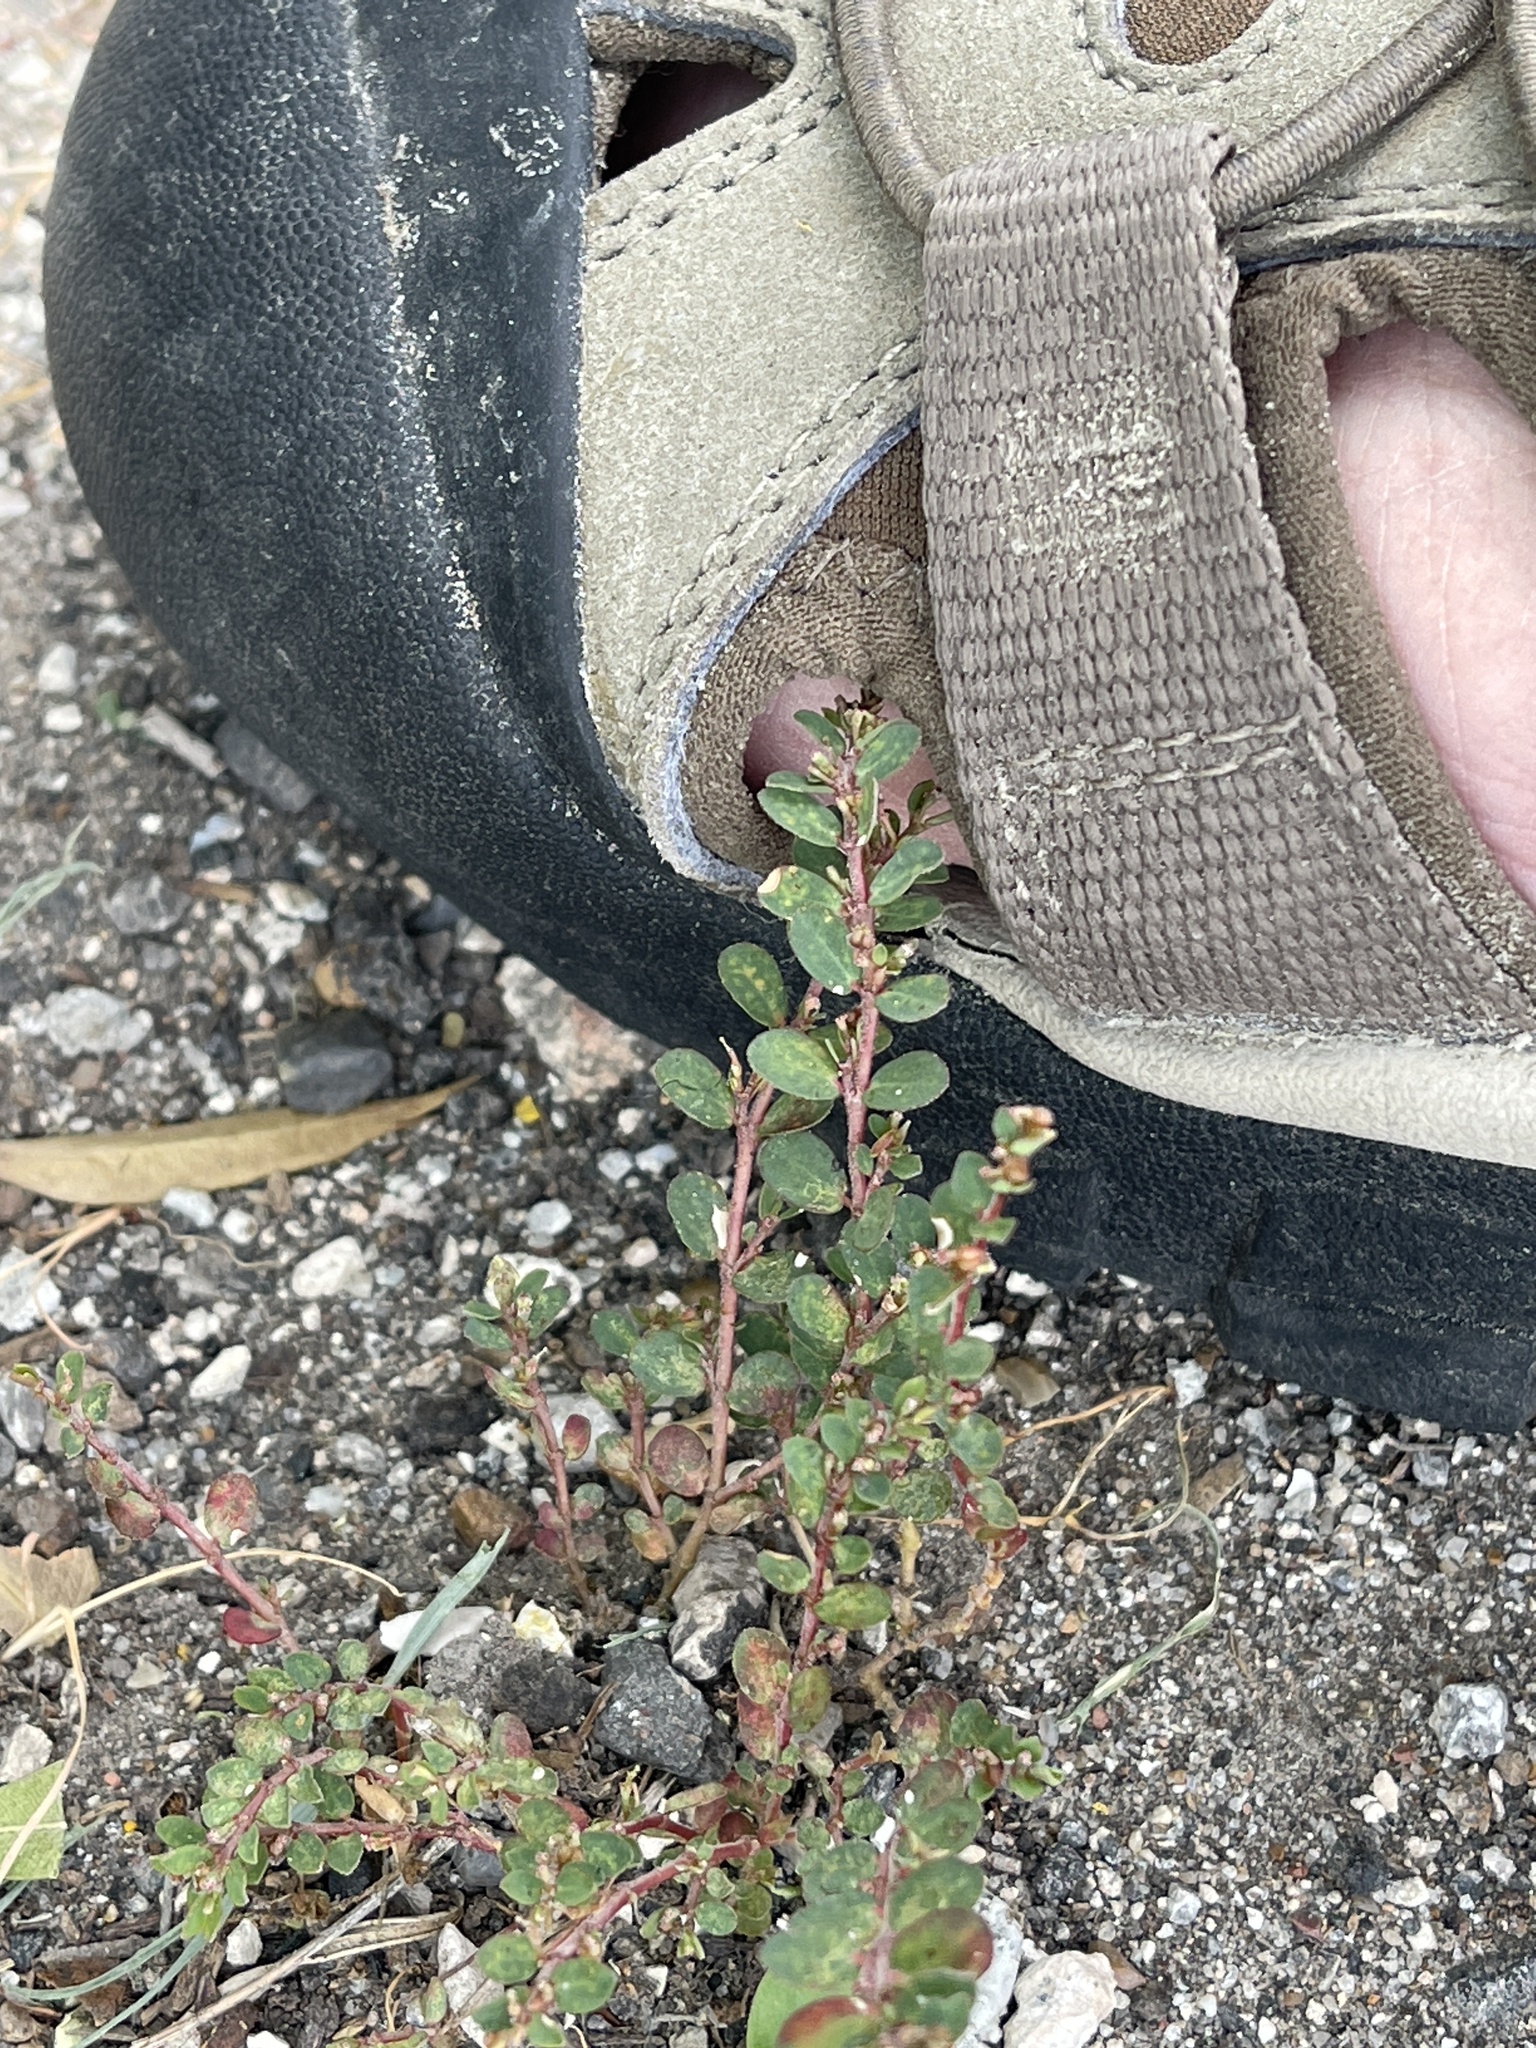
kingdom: Plantae
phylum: Tracheophyta
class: Magnoliopsida
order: Malpighiales
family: Euphorbiaceae
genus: Euphorbia
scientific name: Euphorbia prostrata
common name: Prostrate sandmat
